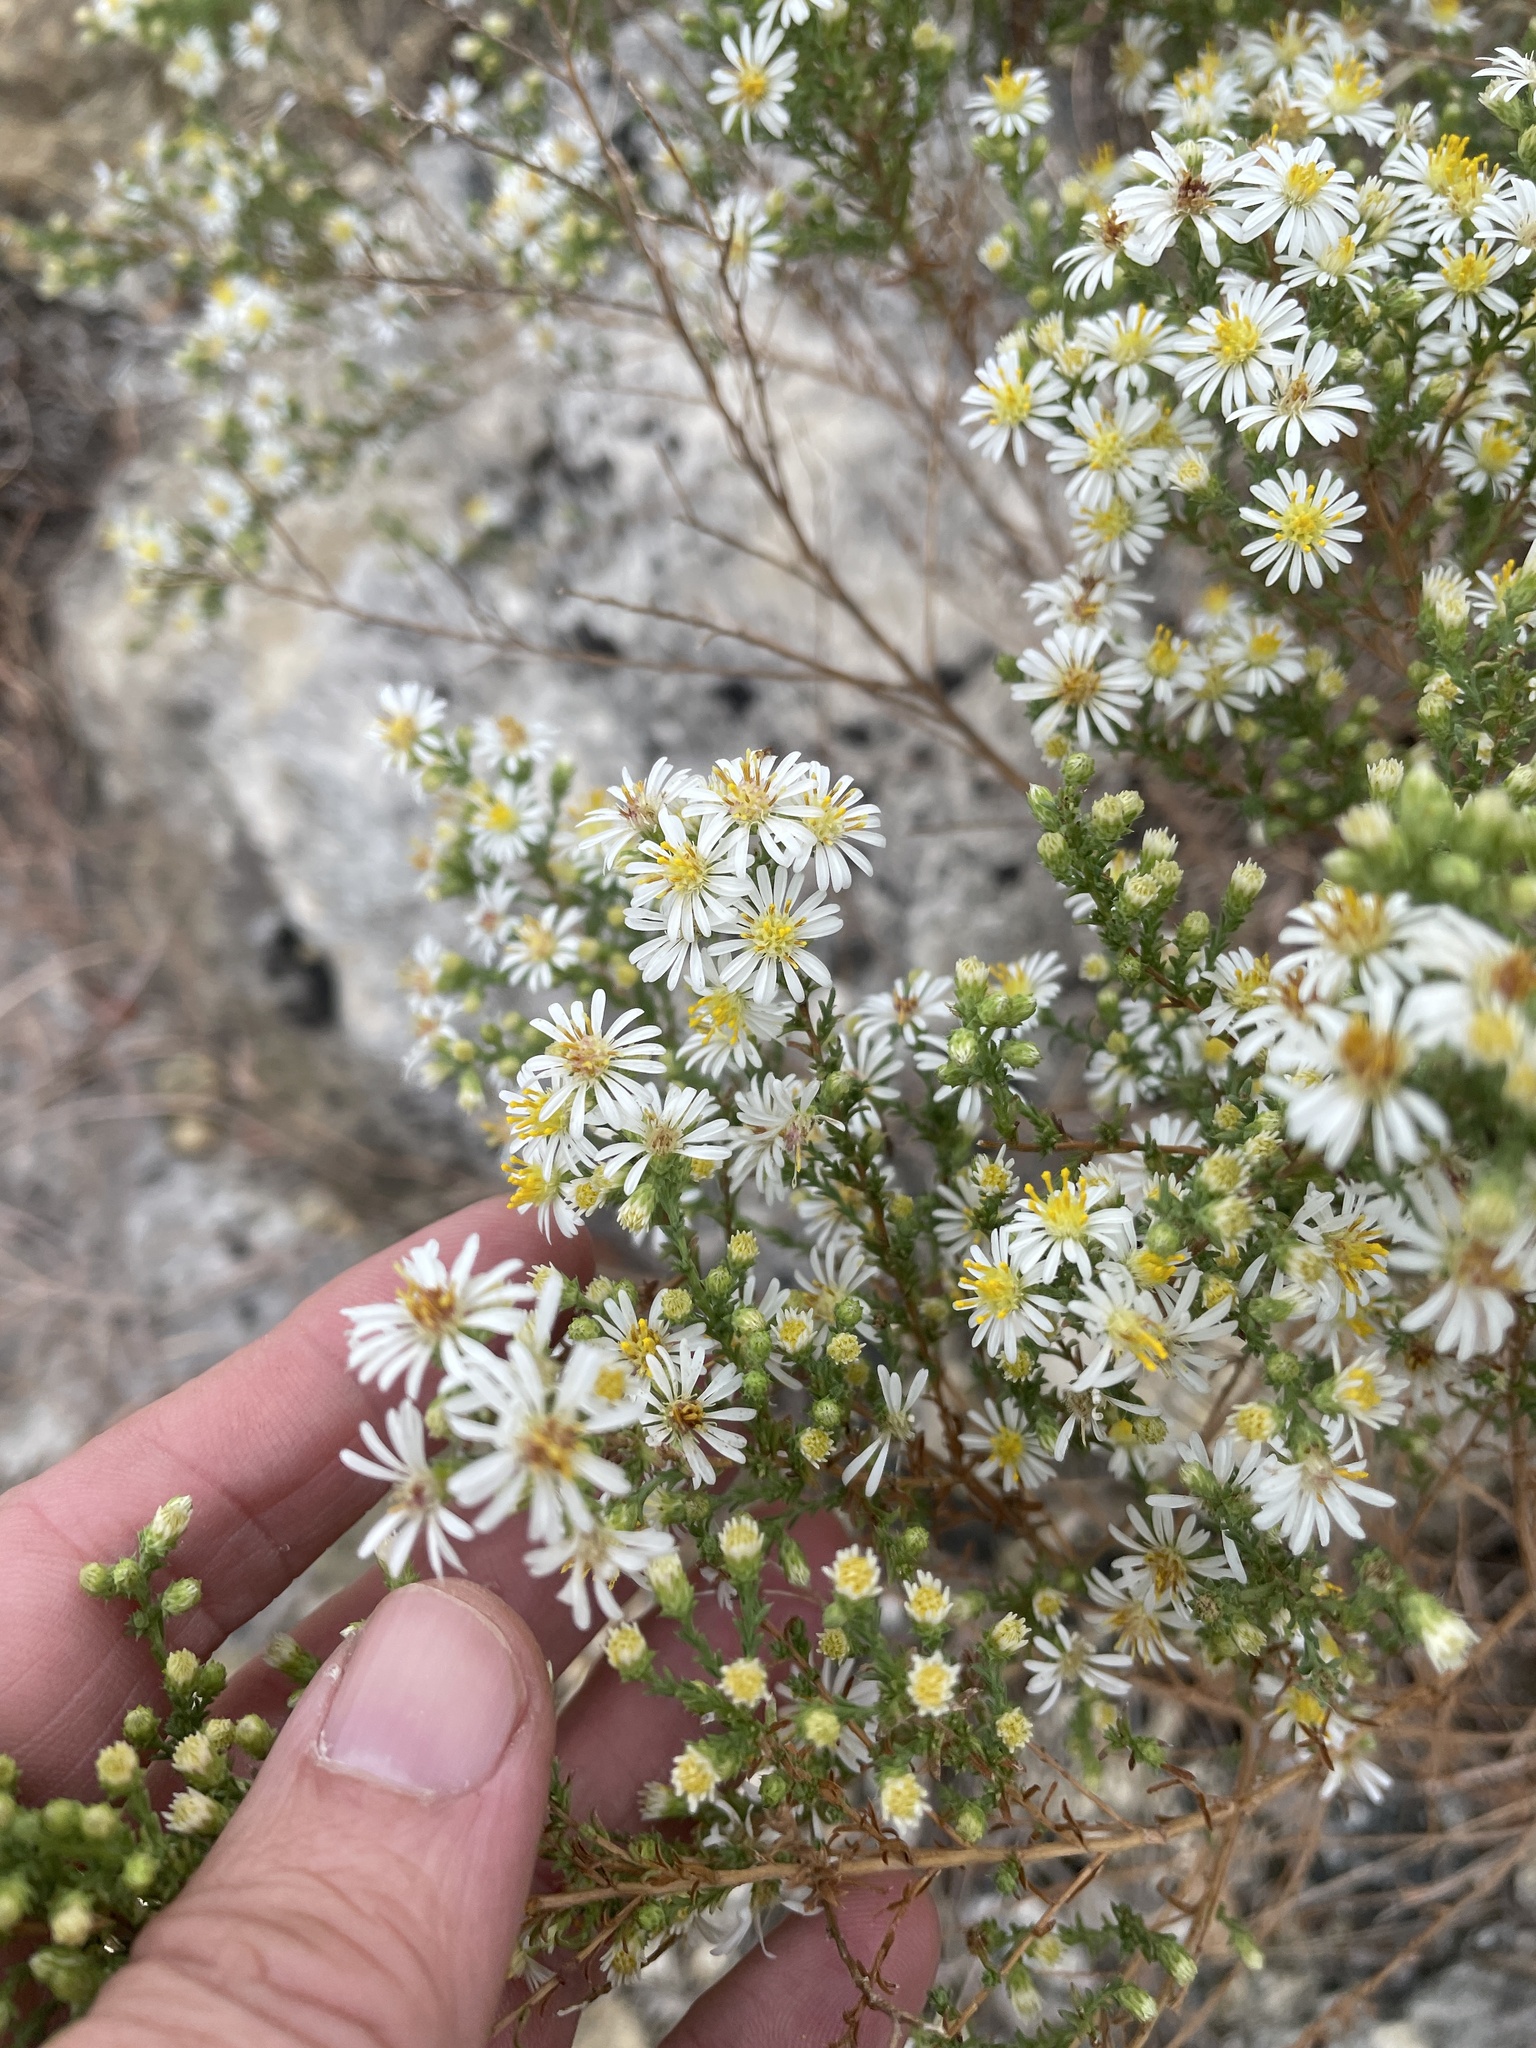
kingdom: Plantae
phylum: Tracheophyta
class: Magnoliopsida
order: Asterales
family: Asteraceae
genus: Symphyotrichum
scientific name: Symphyotrichum ericoides
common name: Heath aster
